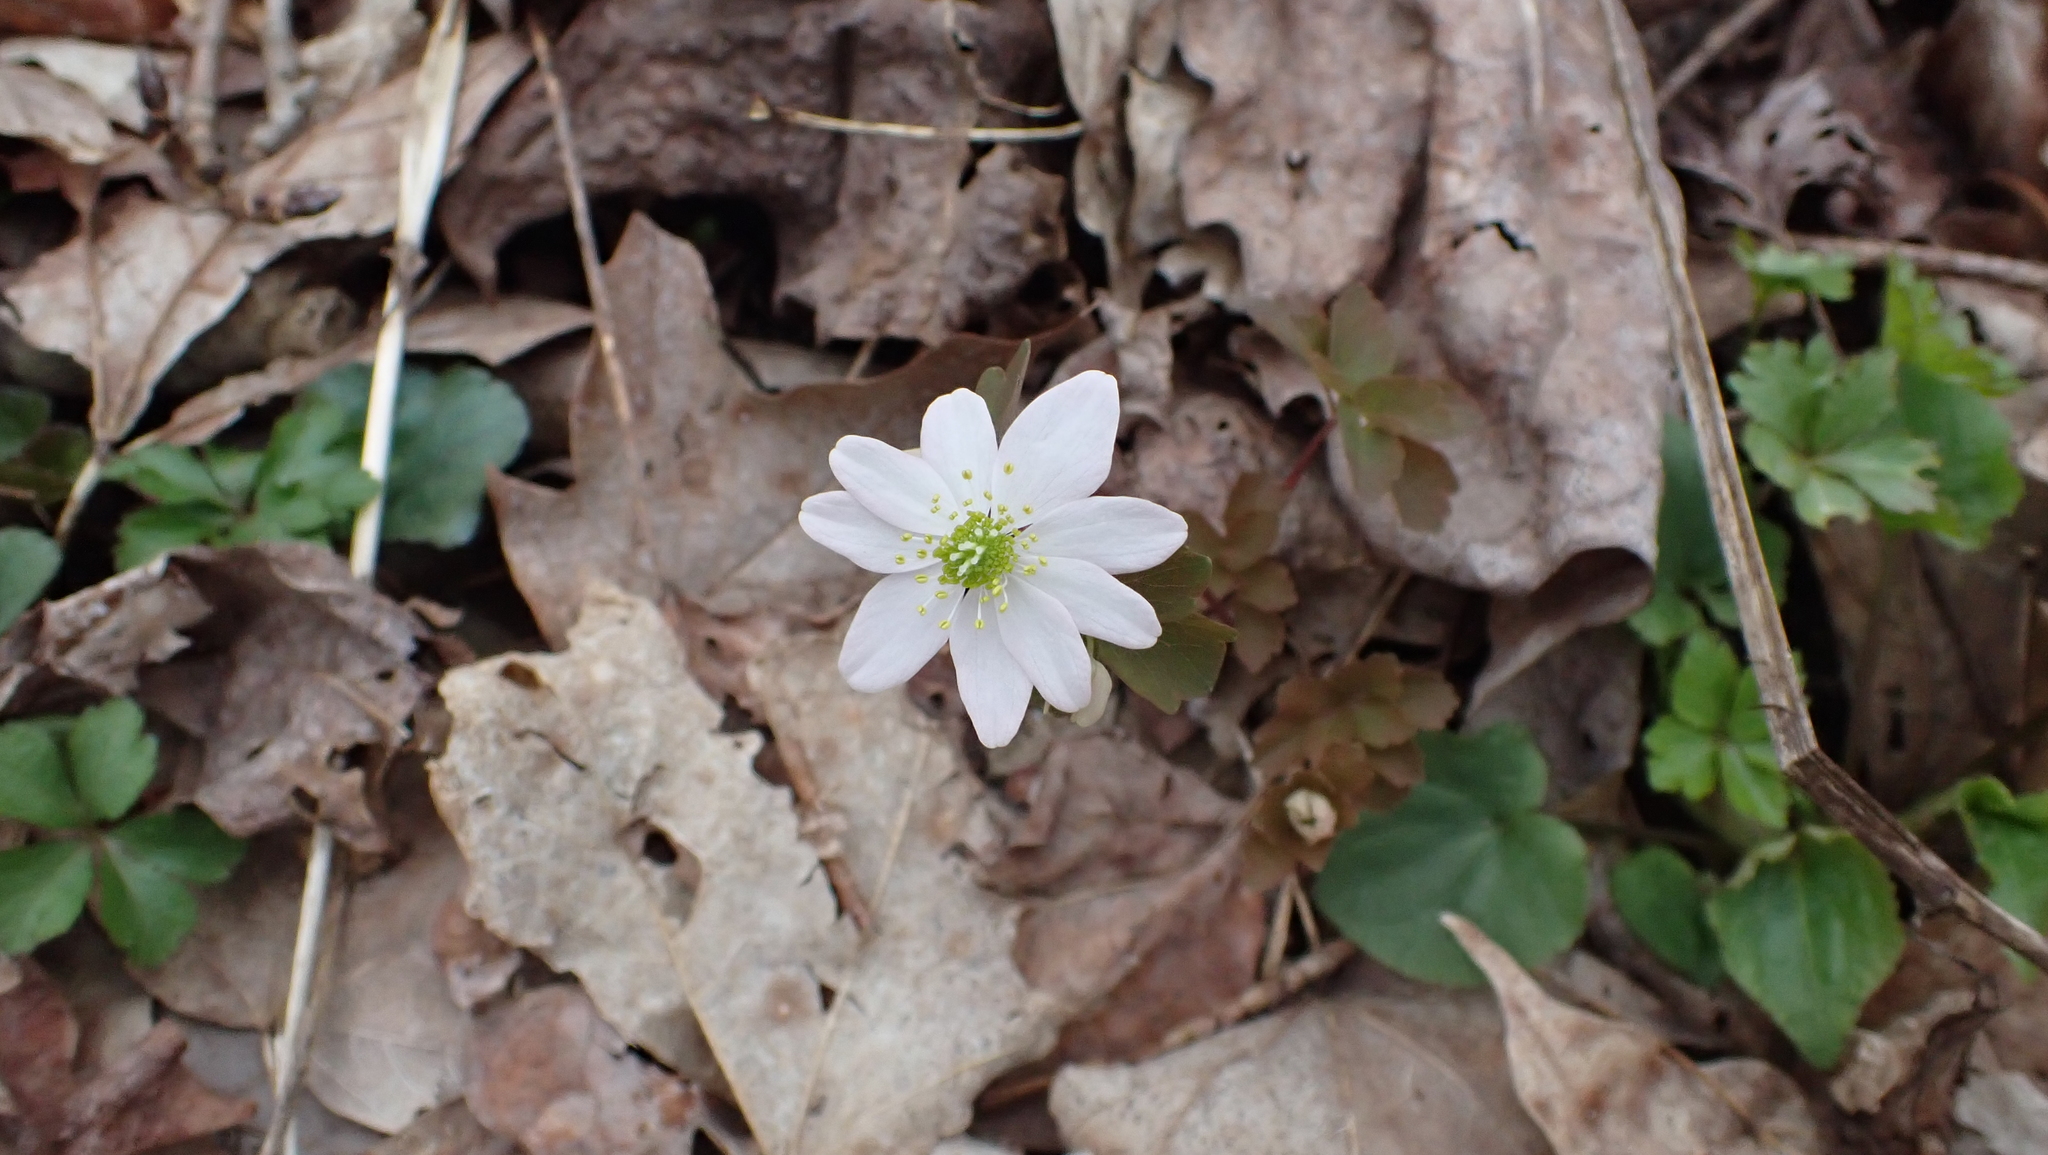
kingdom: Plantae
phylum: Tracheophyta
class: Magnoliopsida
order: Ranunculales
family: Ranunculaceae
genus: Thalictrum
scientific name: Thalictrum thalictroides
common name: Rue-anemone
